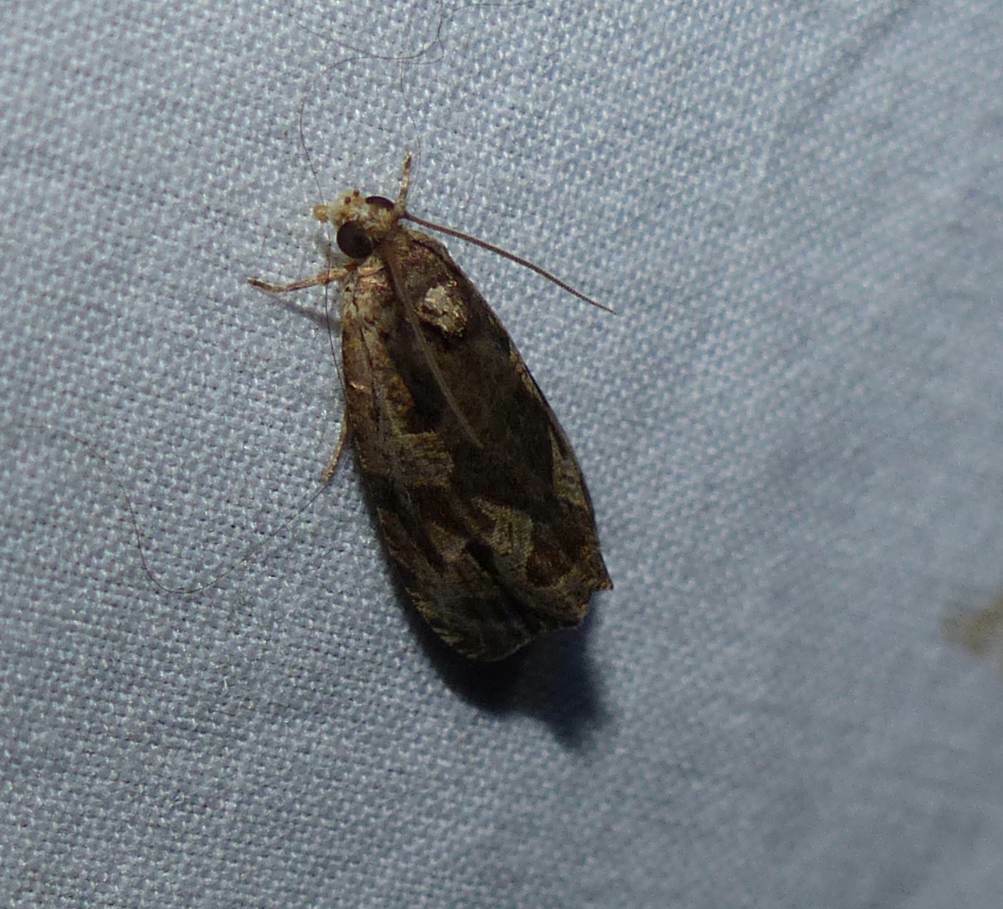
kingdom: Animalia
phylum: Arthropoda
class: Insecta
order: Lepidoptera
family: Tortricidae
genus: Olethreutes
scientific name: Olethreutes nigranum
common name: Variable nigranum moth
